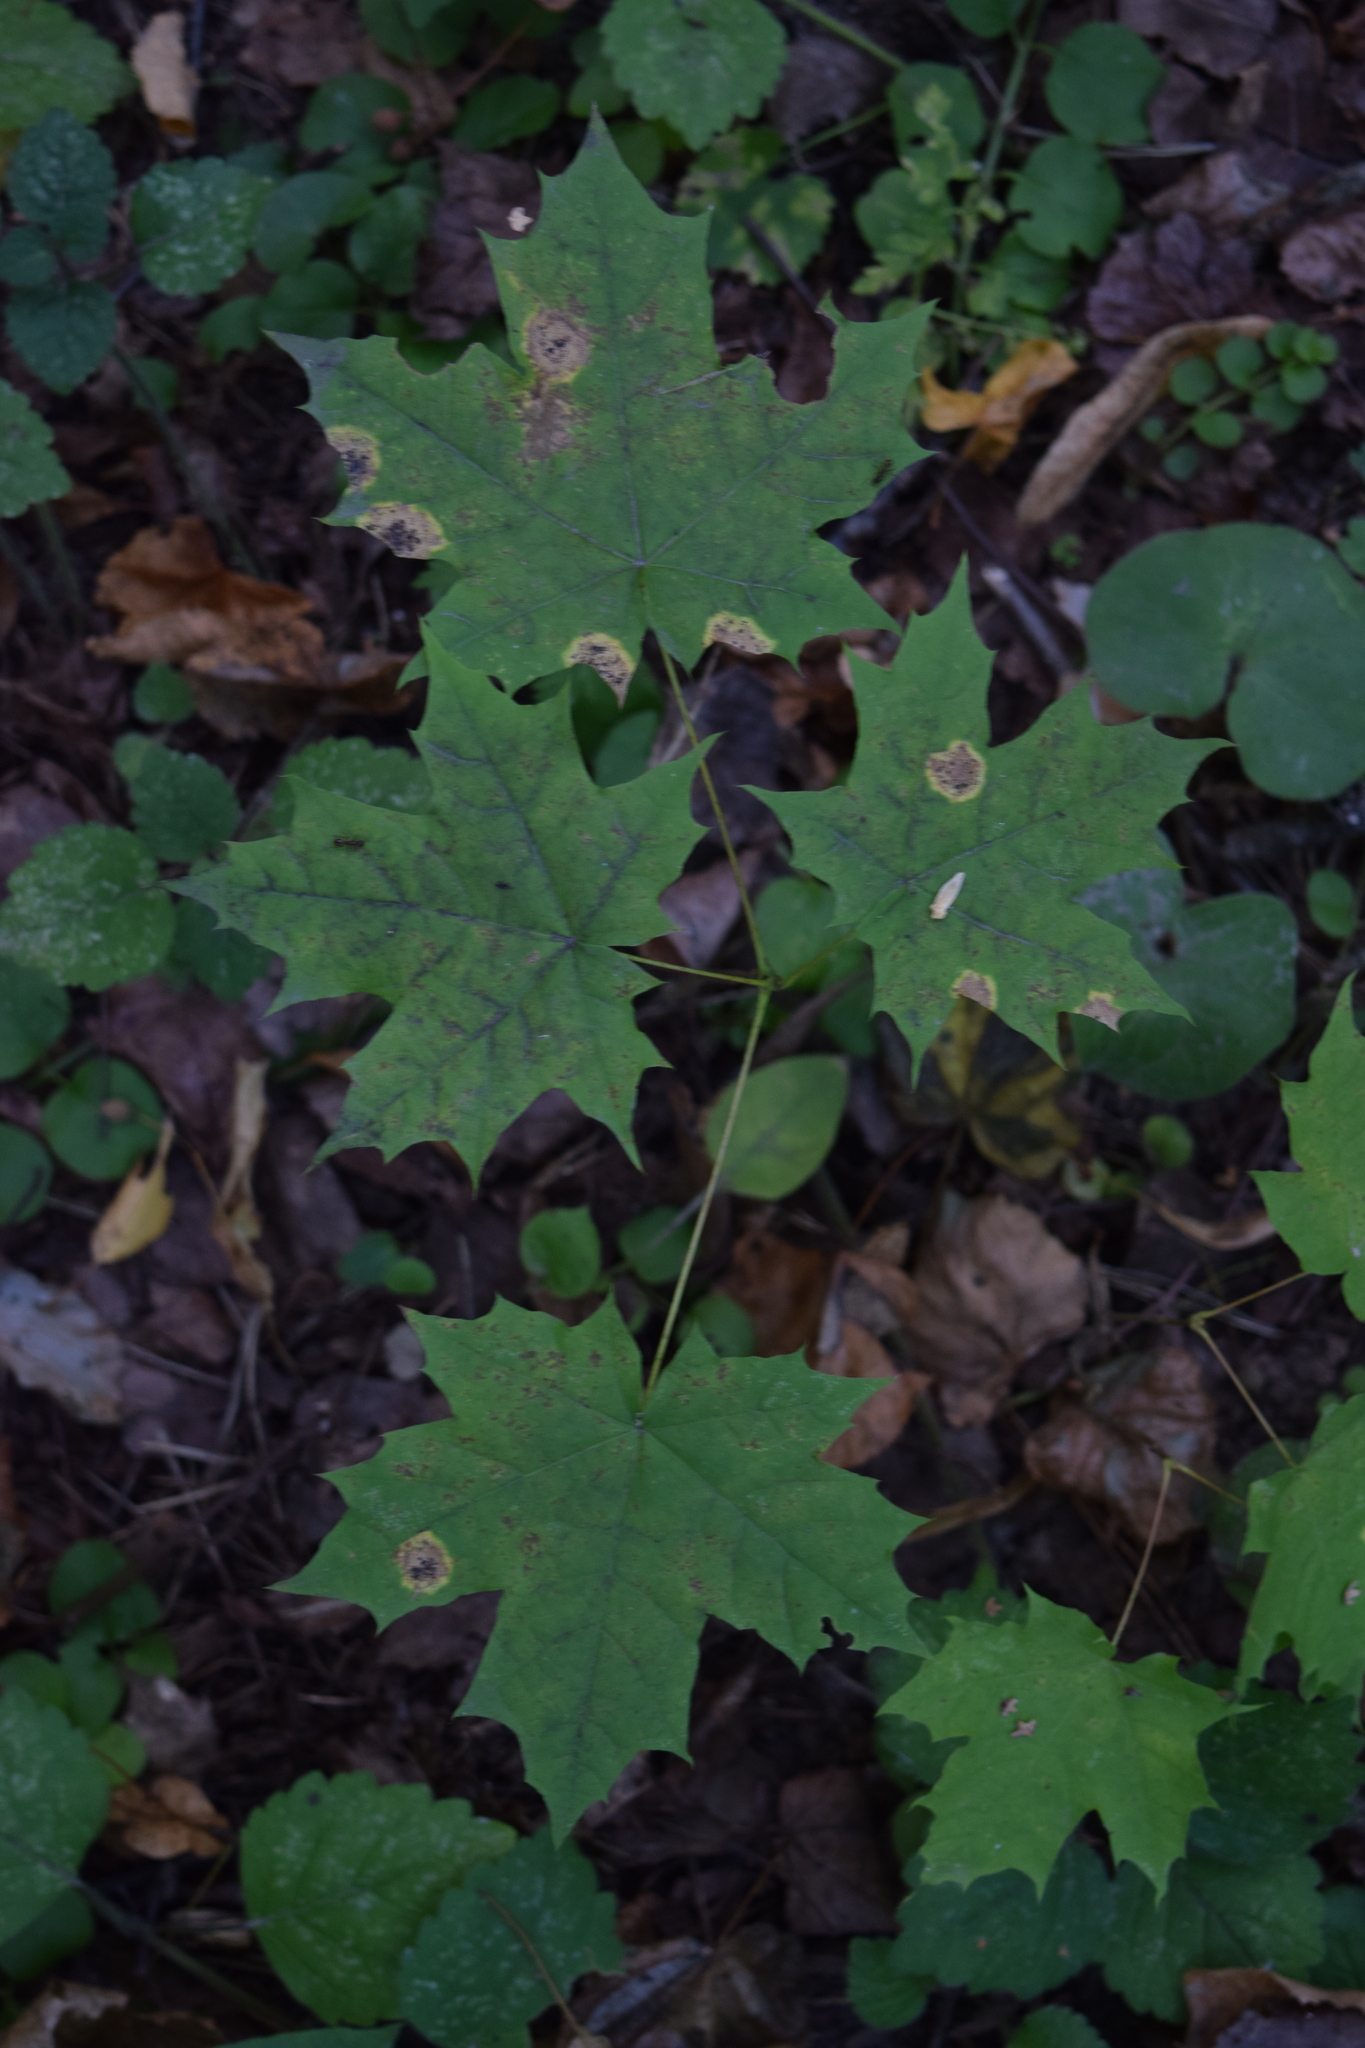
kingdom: Plantae
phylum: Tracheophyta
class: Magnoliopsida
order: Sapindales
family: Sapindaceae
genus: Acer
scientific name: Acer platanoides
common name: Norway maple
